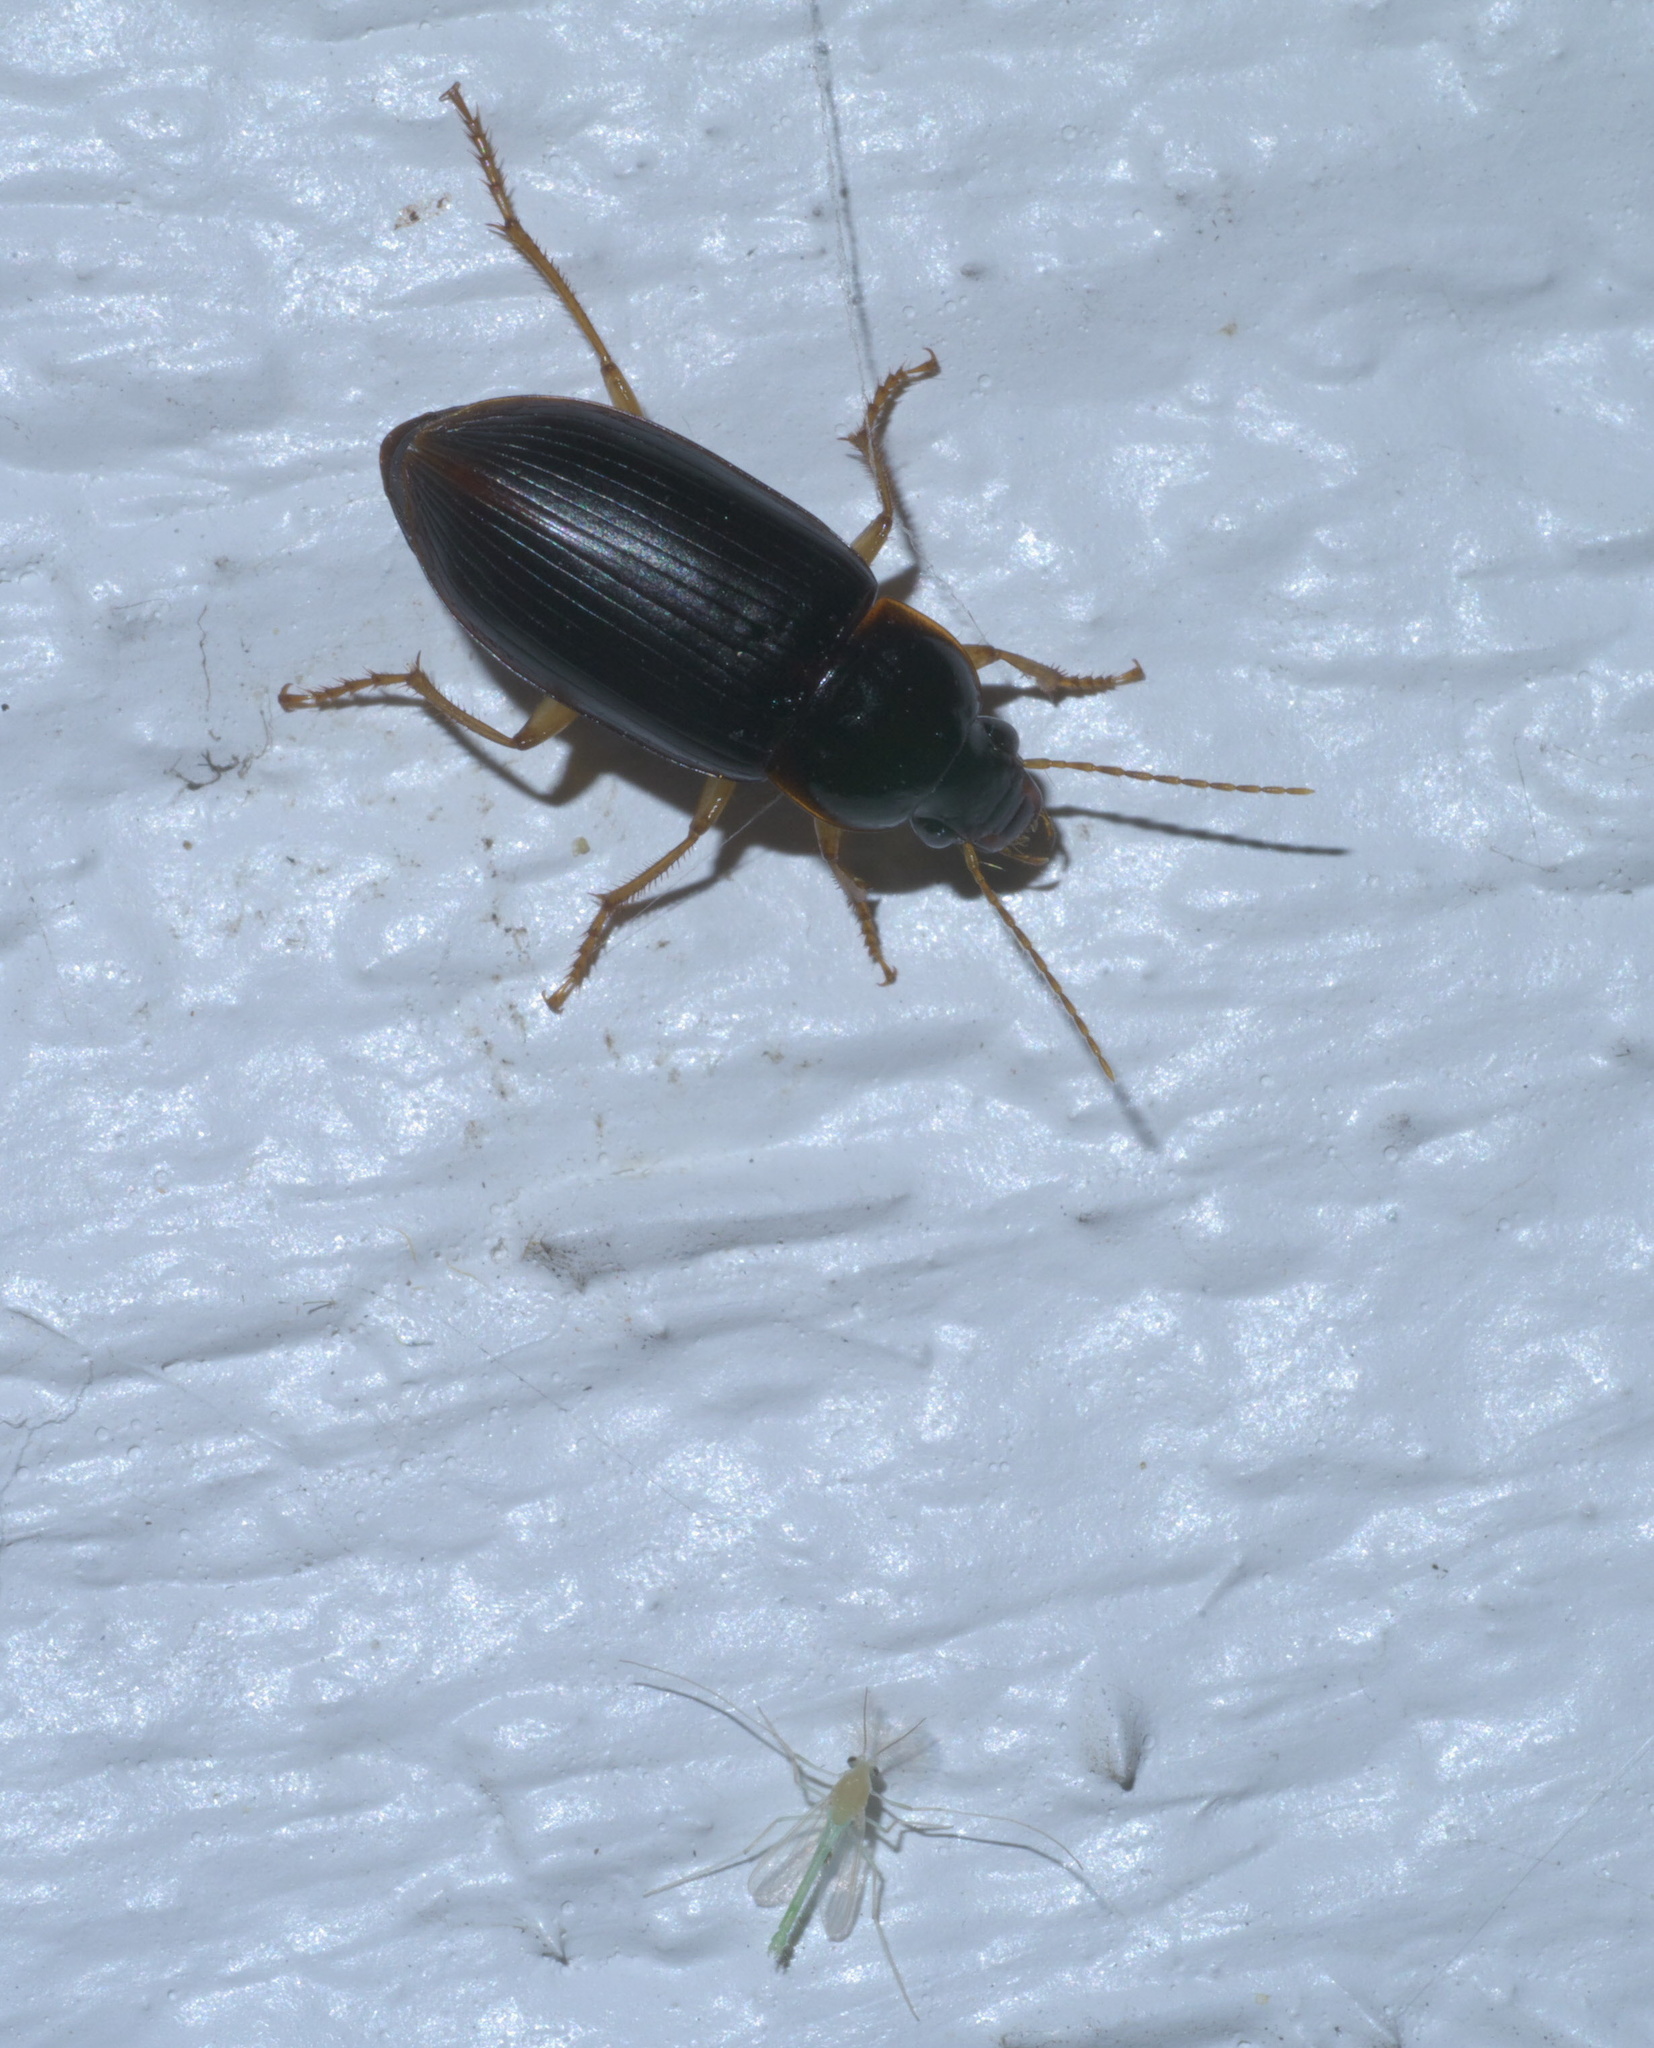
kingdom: Animalia
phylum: Arthropoda
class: Insecta
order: Coleoptera
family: Carabidae
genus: Calathus
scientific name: Calathus opaculus
